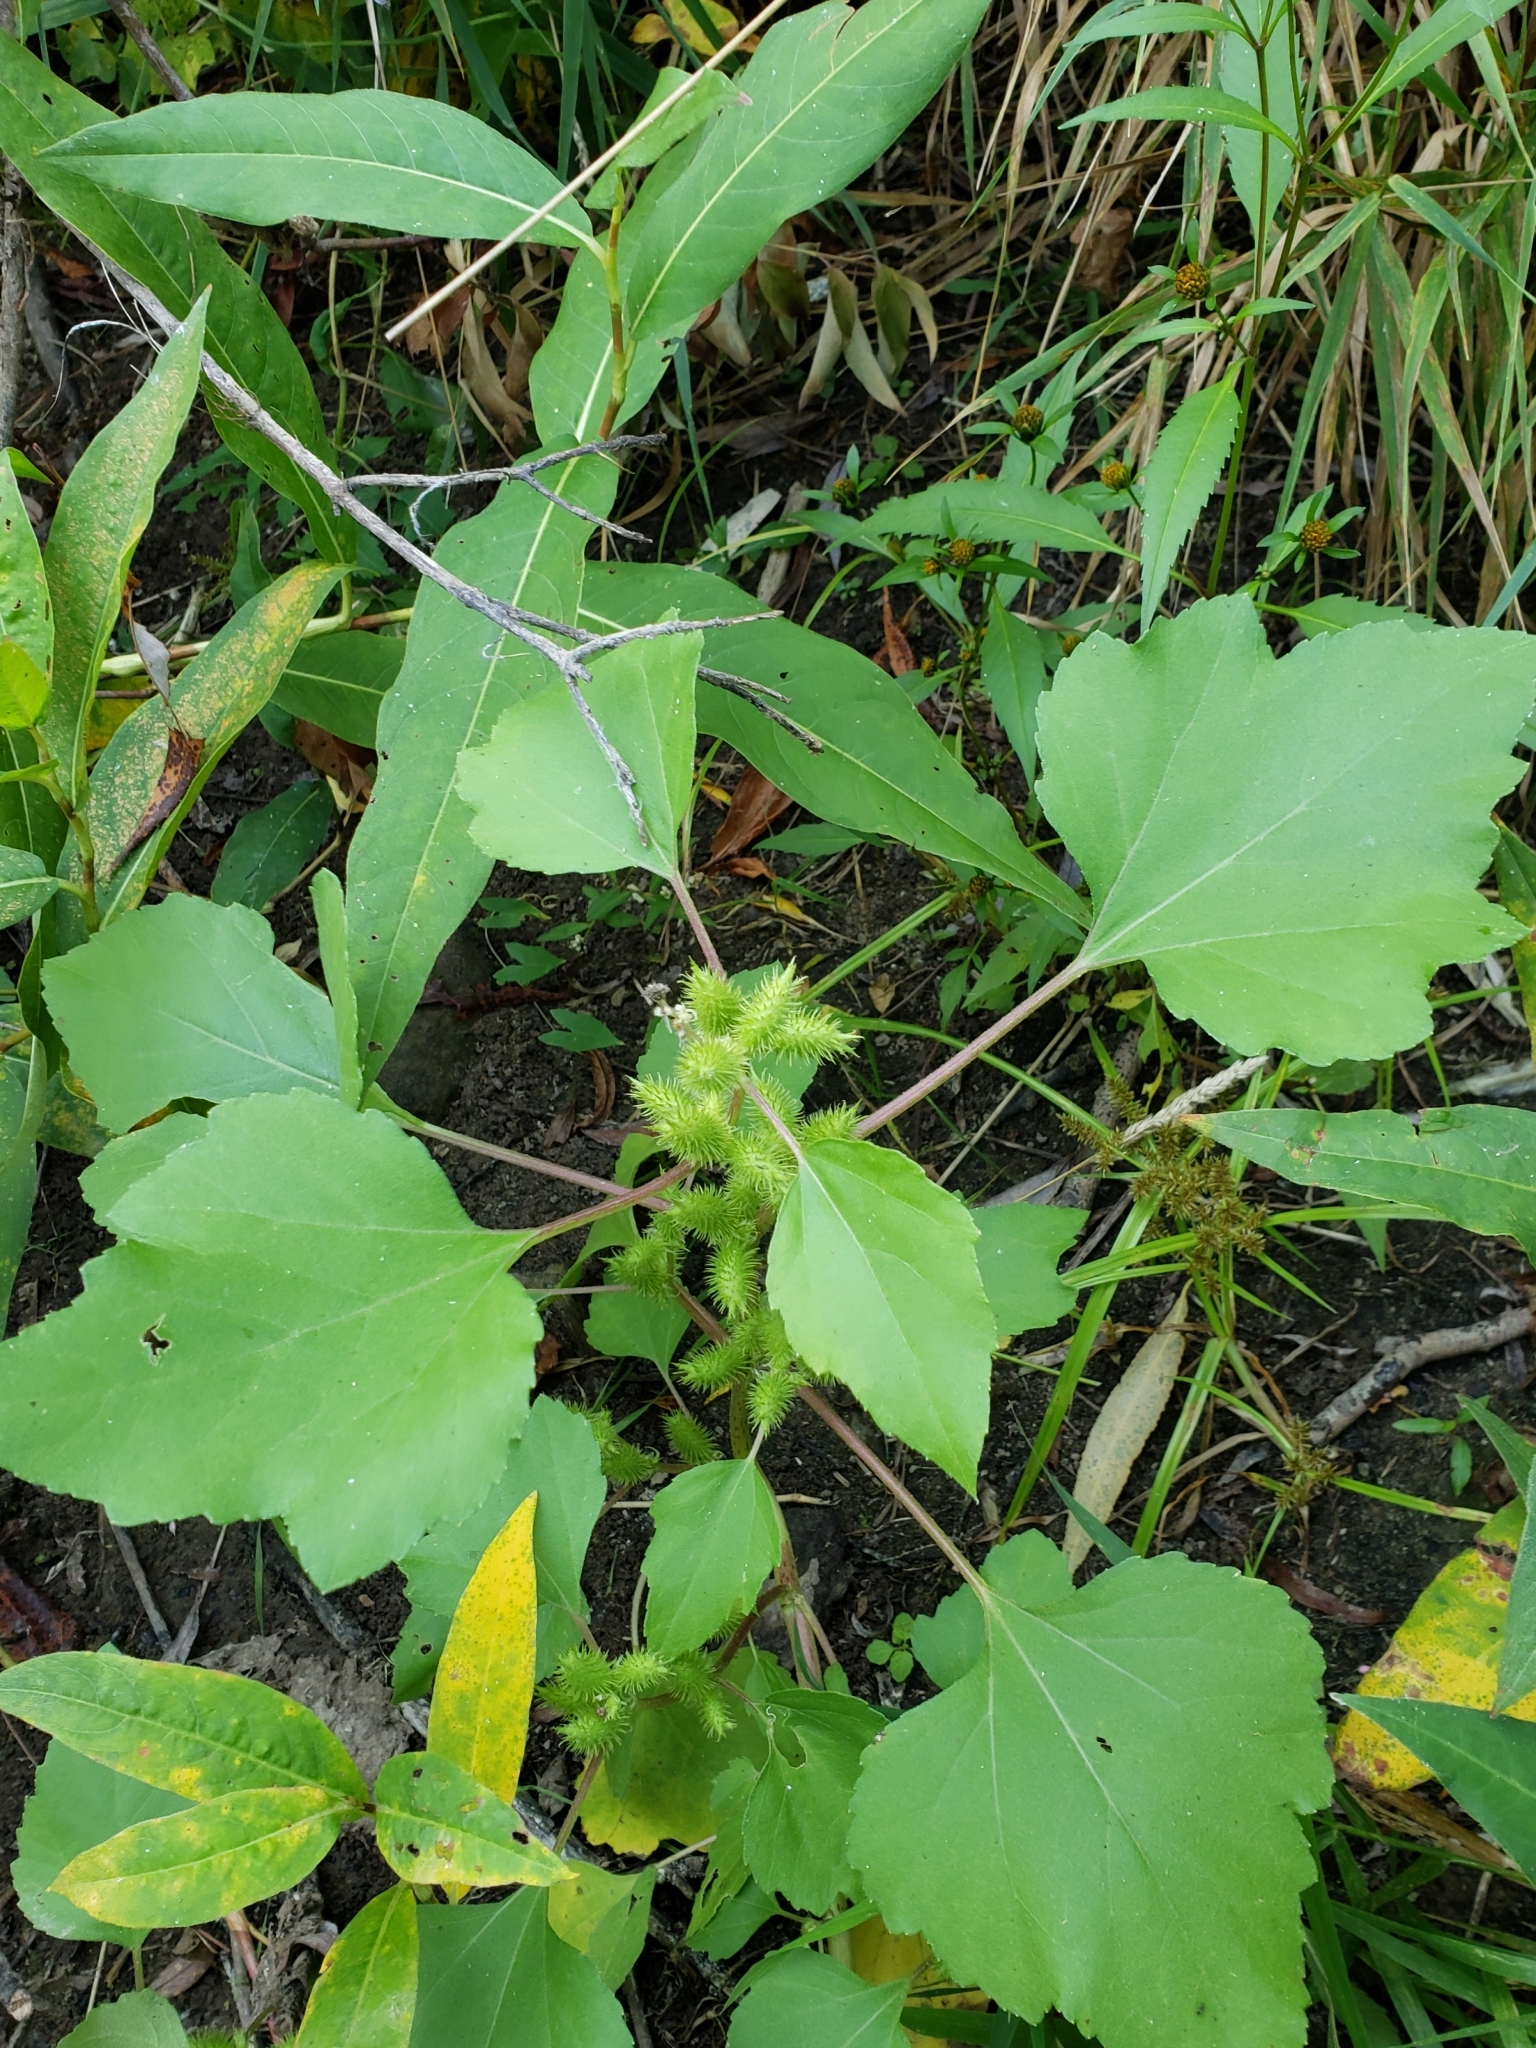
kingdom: Plantae
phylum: Tracheophyta
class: Magnoliopsida
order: Asterales
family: Asteraceae
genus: Xanthium
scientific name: Xanthium strumarium
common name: Rough cocklebur
